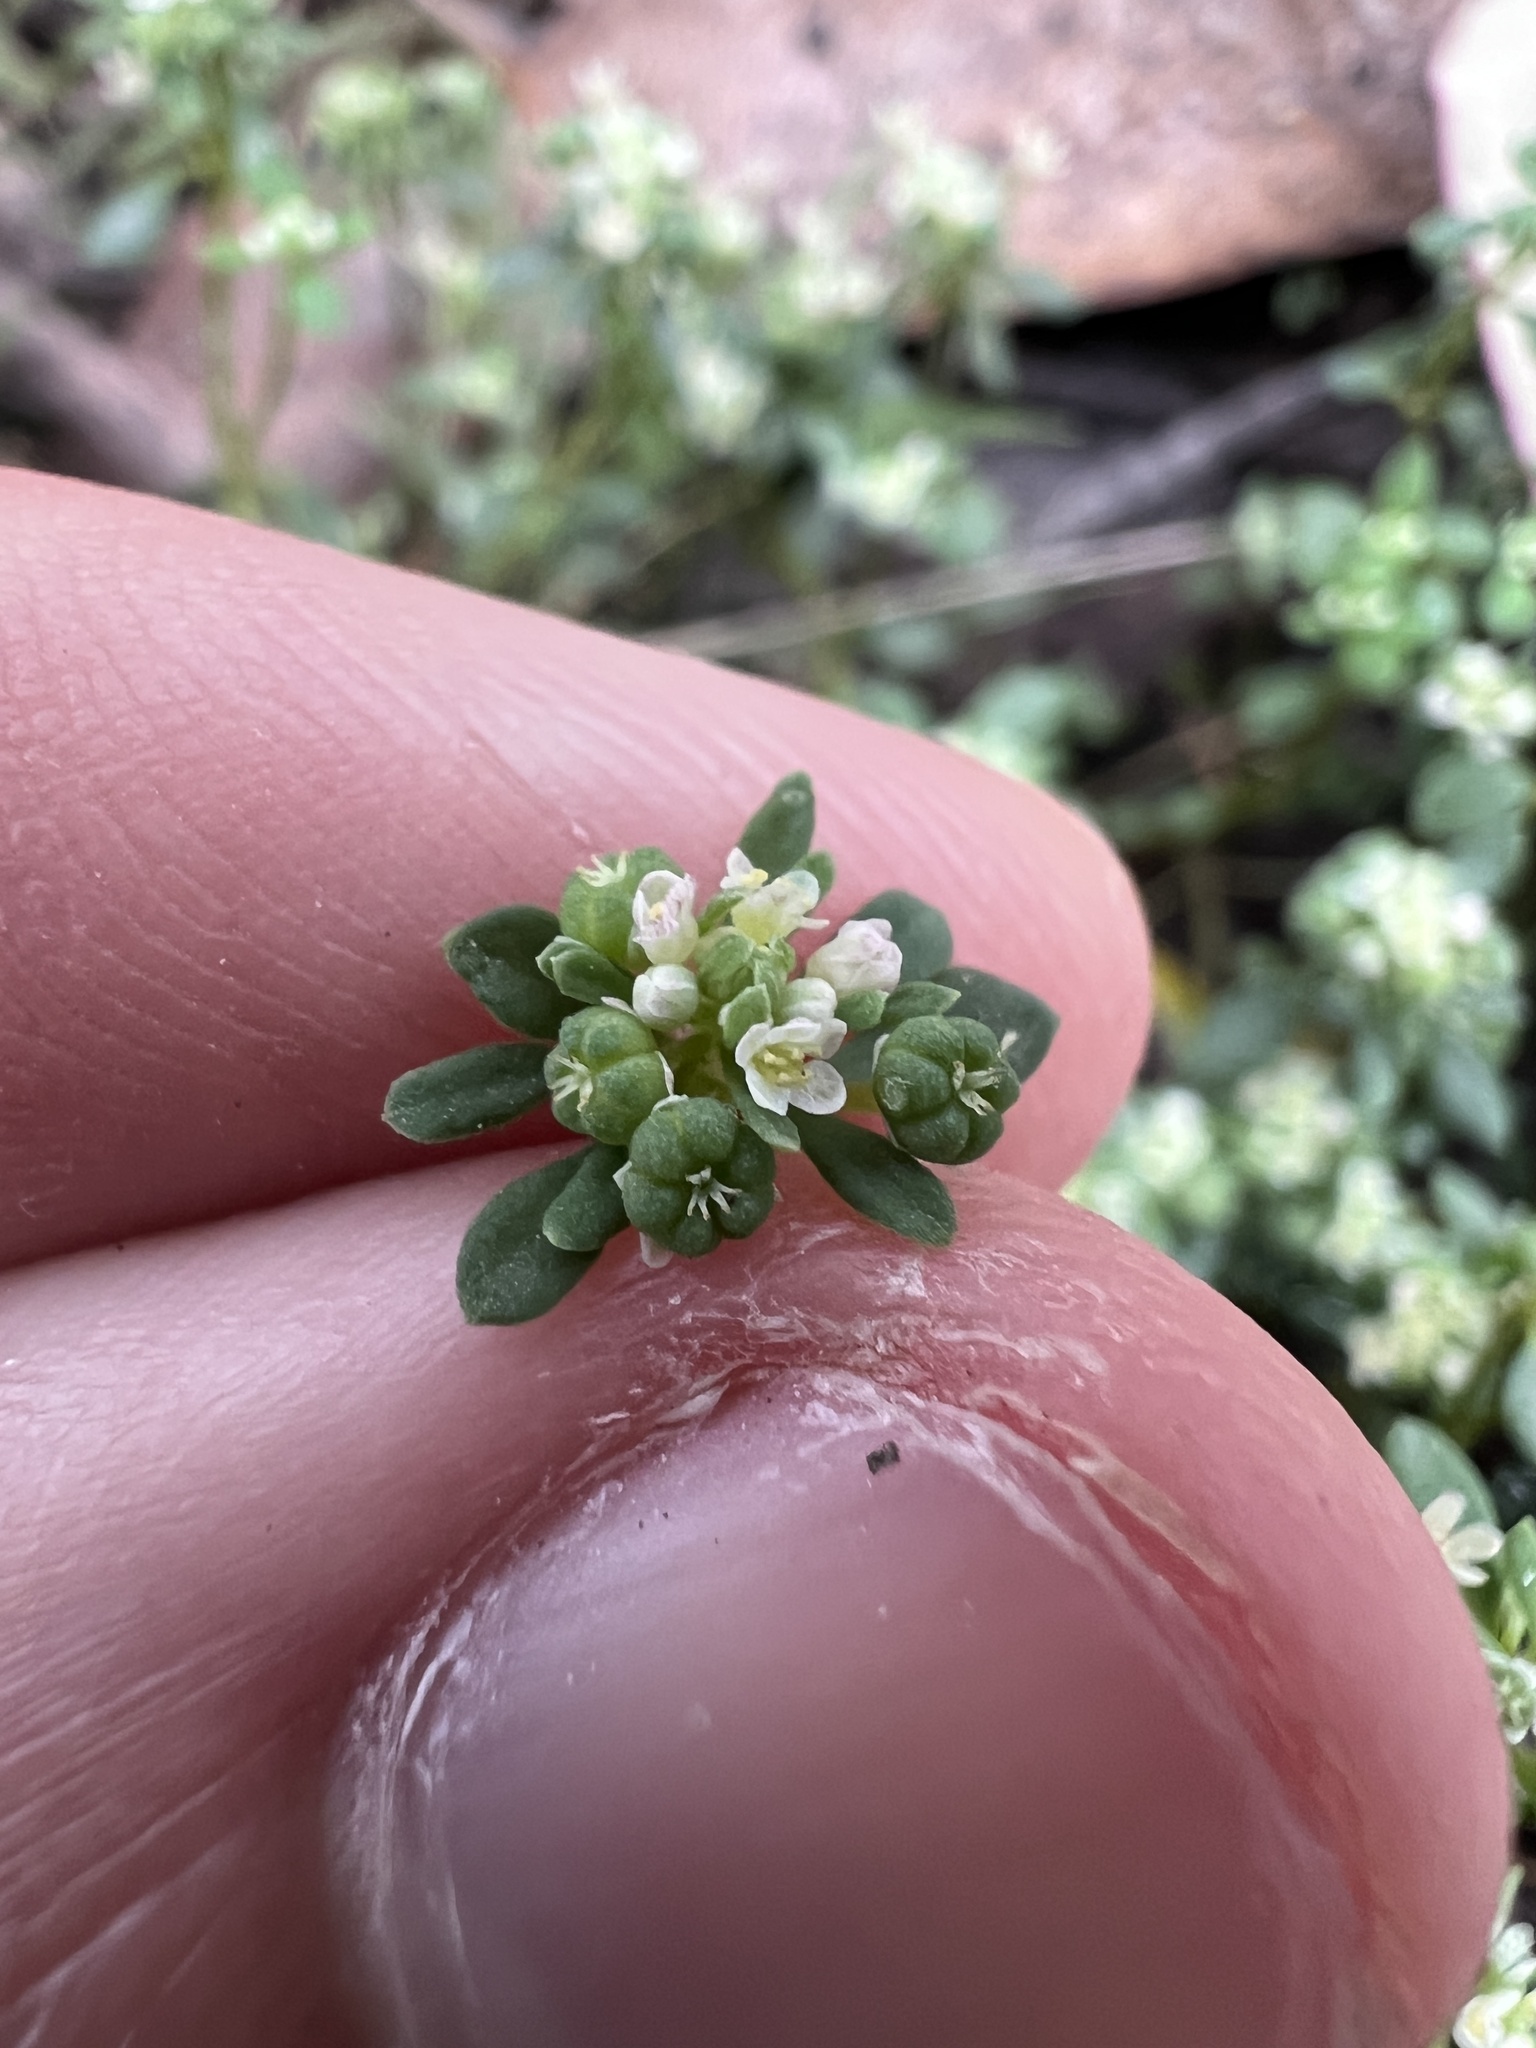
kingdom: Plantae
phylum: Tracheophyta
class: Magnoliopsida
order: Malpighiales
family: Phyllanthaceae
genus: Poranthera
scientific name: Poranthera microphylla
